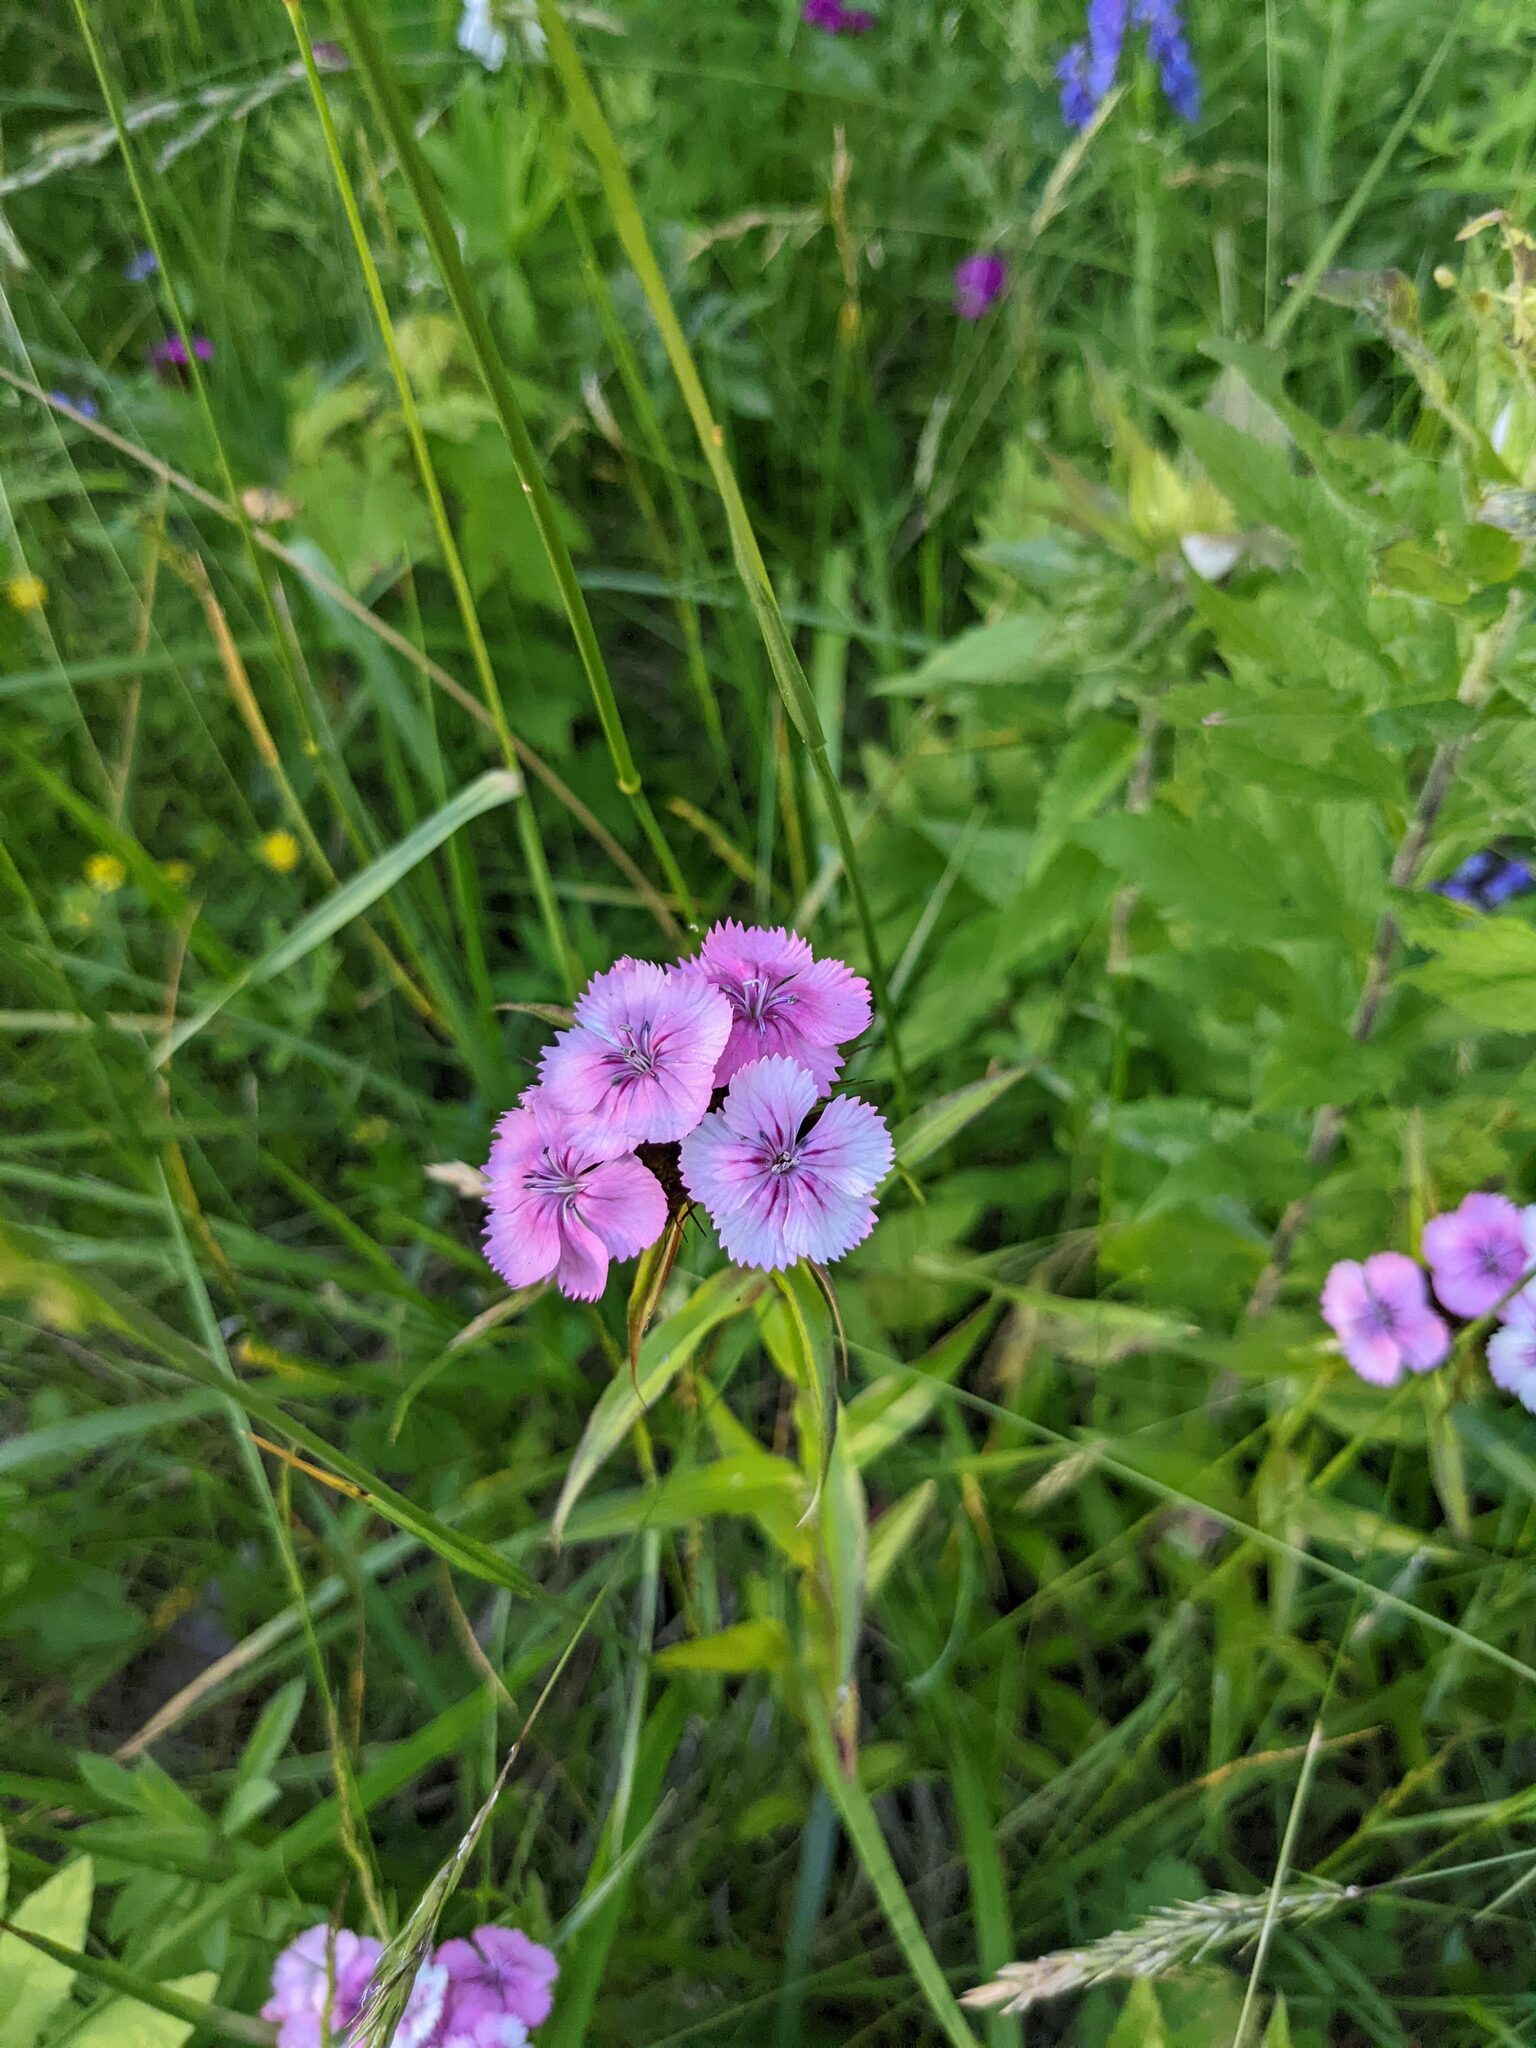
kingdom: Plantae
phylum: Tracheophyta
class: Magnoliopsida
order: Caryophyllales
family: Caryophyllaceae
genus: Dianthus
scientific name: Dianthus barbatus
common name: Sweet-william
